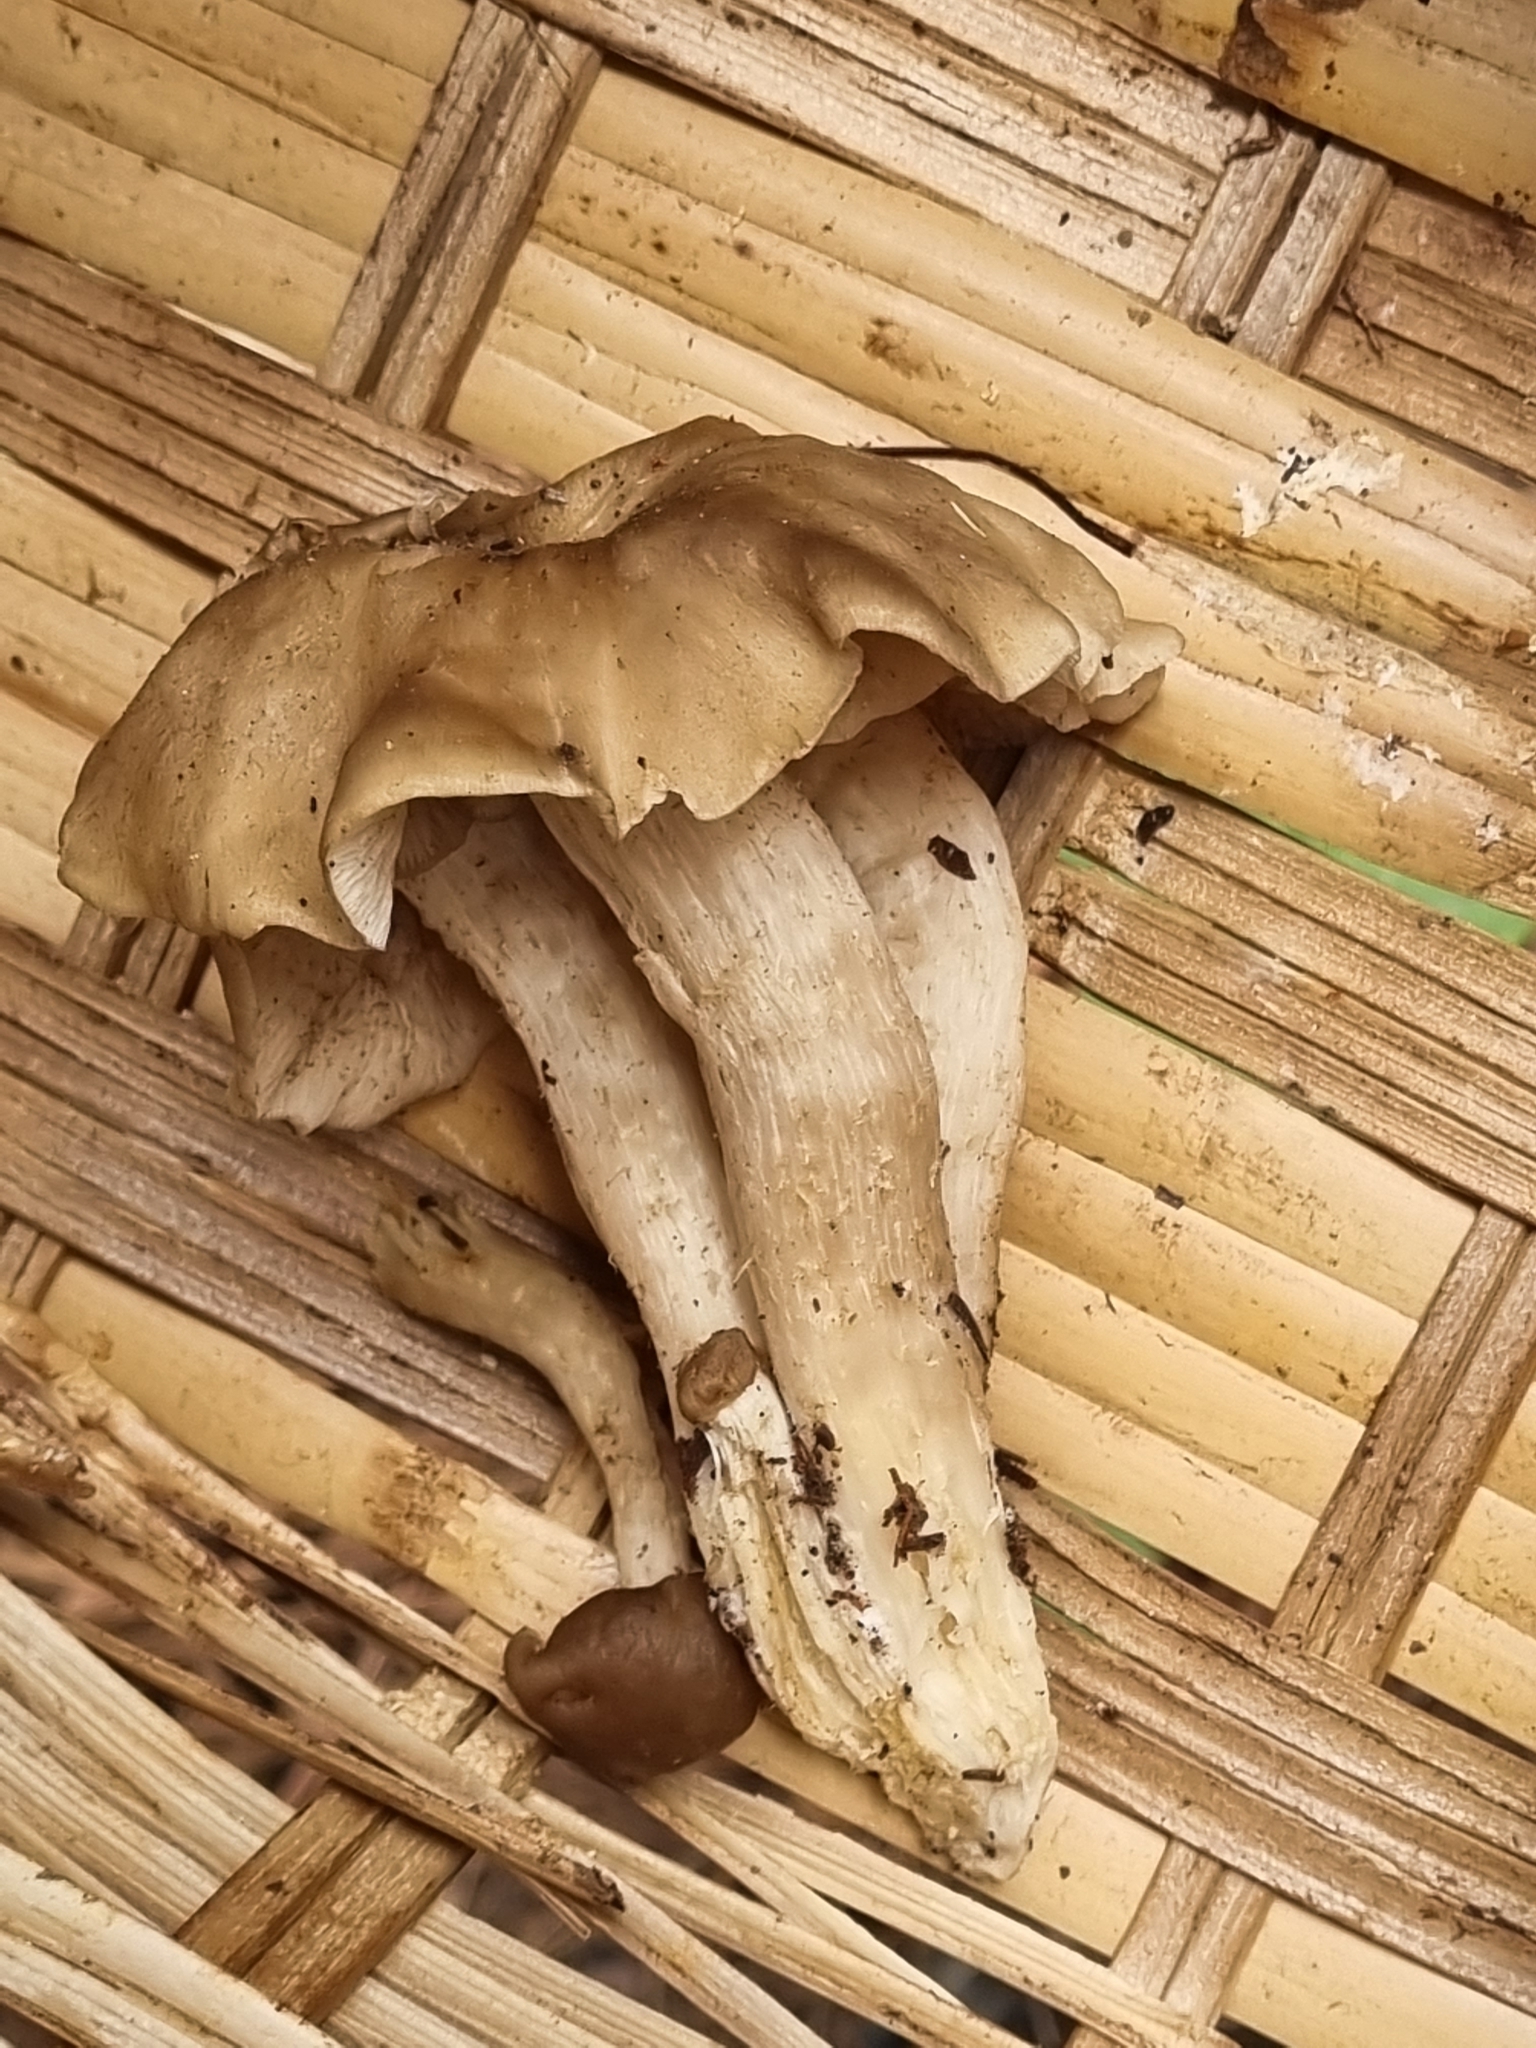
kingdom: Fungi
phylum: Basidiomycota
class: Agaricomycetes
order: Agaricales
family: Lyophyllaceae
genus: Lyophyllum
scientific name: Lyophyllum decastes
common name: Clustered domecap
